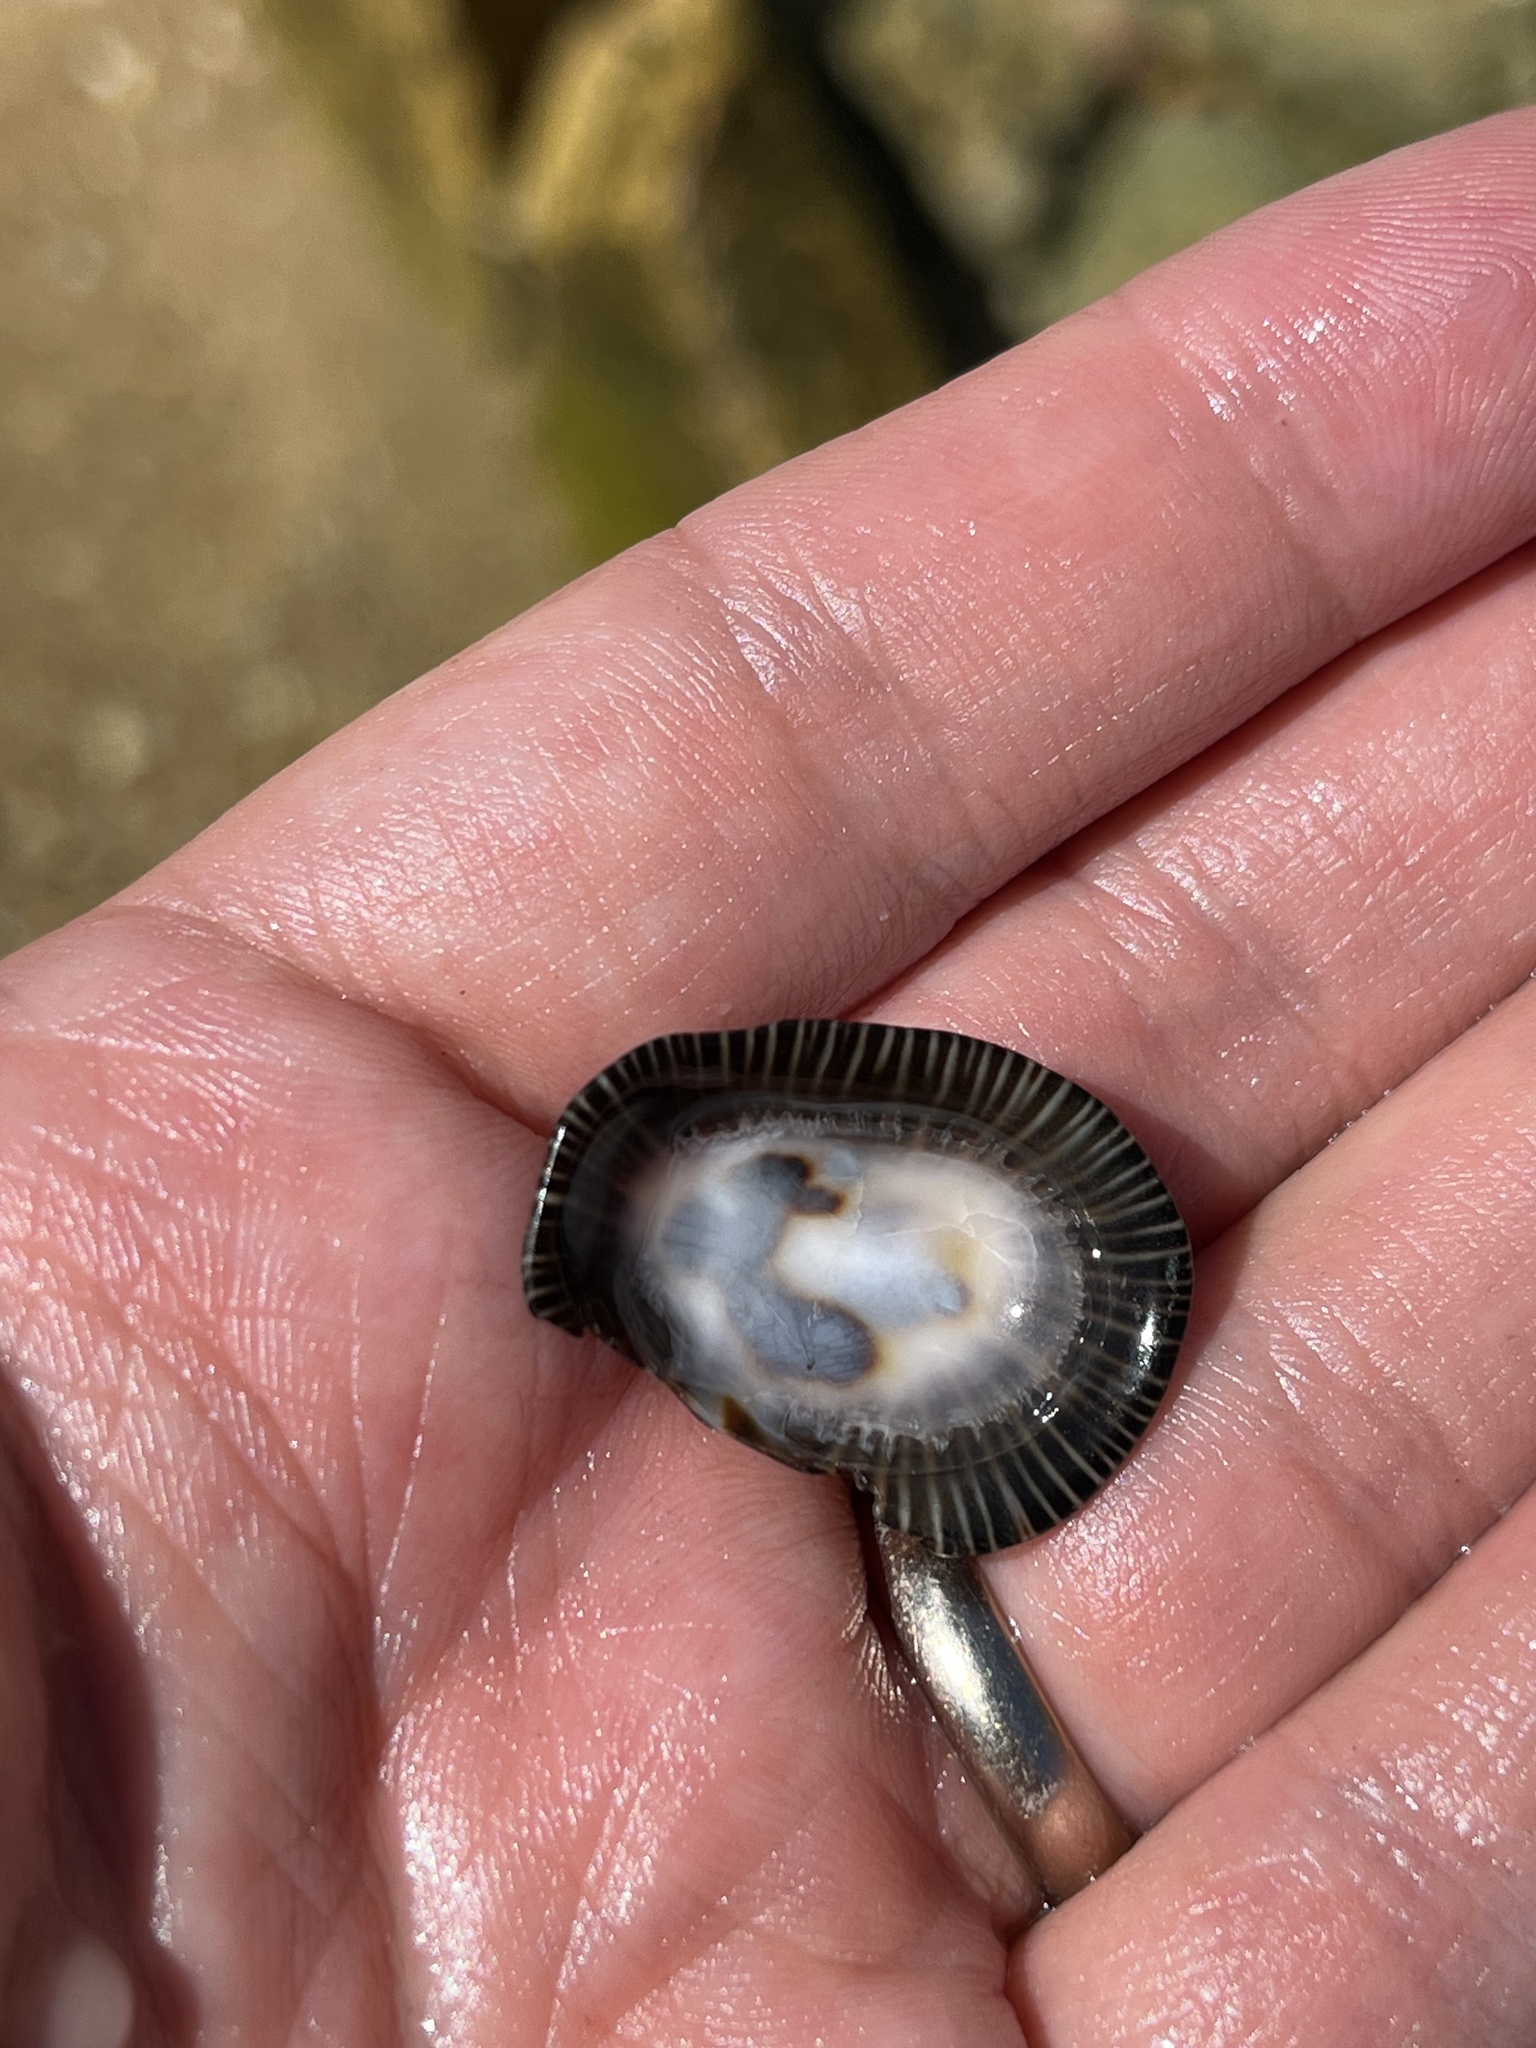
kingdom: Animalia
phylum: Mollusca
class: Gastropoda
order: Siphonariida
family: Siphonariidae
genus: Siphonaria
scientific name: Siphonaria pectinata
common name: Striped false limpet
